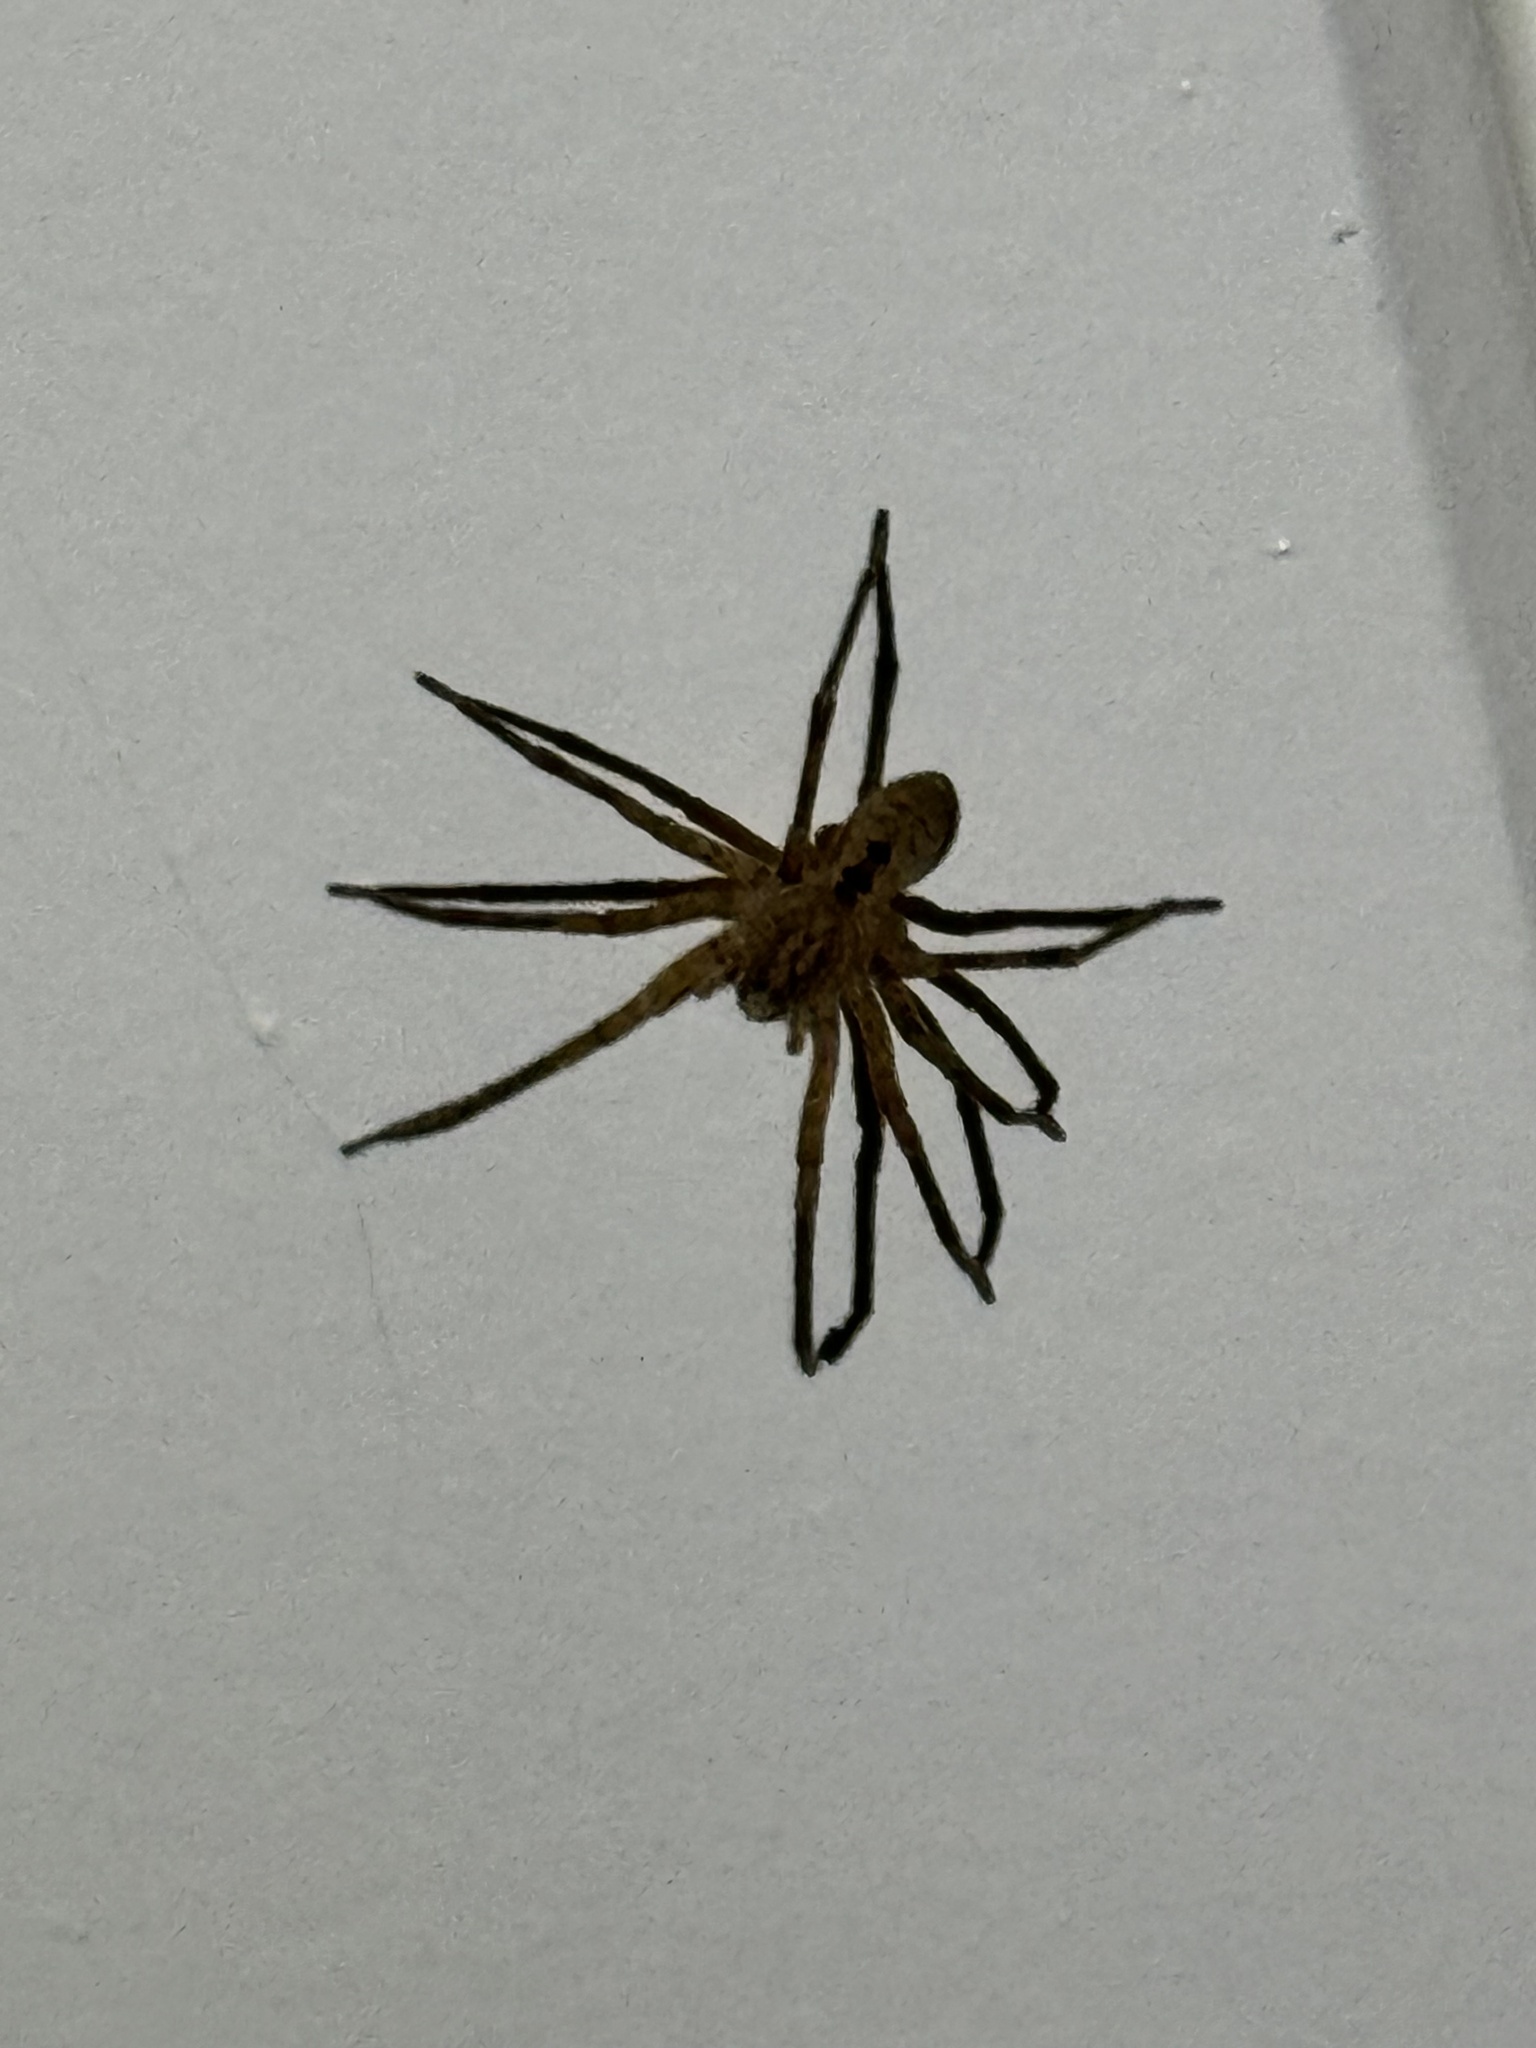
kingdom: Animalia
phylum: Arthropoda
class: Arachnida
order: Araneae
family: Zoropsidae
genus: Zoropsis
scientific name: Zoropsis spinimana
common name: Zoropsid spider
